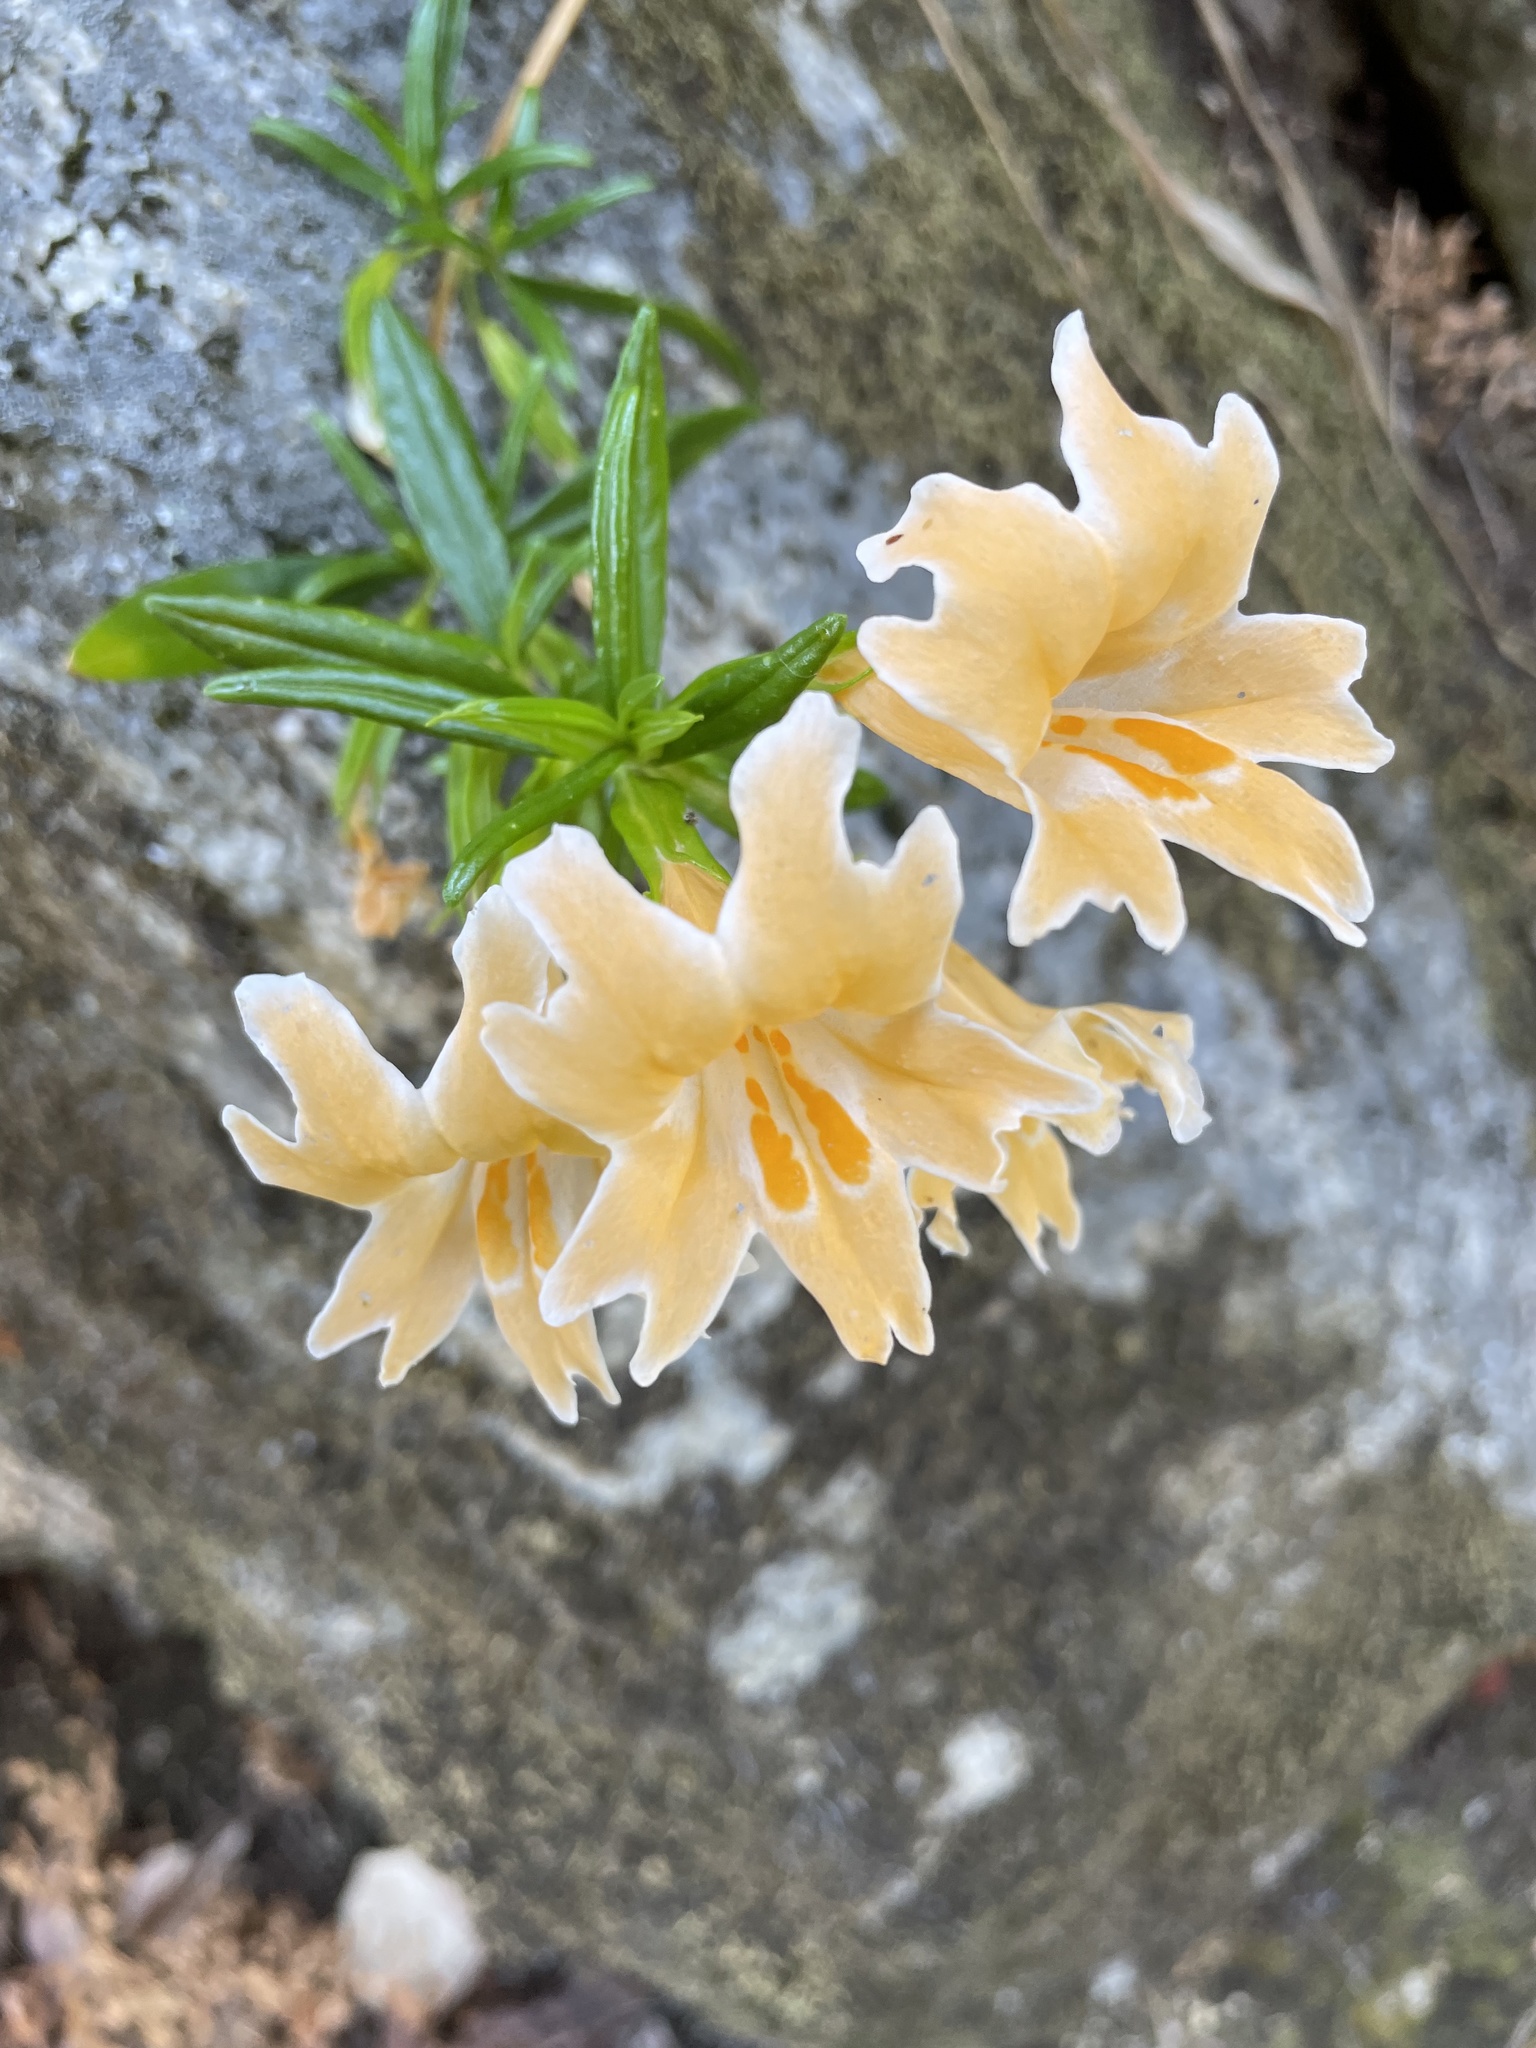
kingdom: Plantae
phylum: Tracheophyta
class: Magnoliopsida
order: Lamiales
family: Phrymaceae
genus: Diplacus
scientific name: Diplacus linearis
